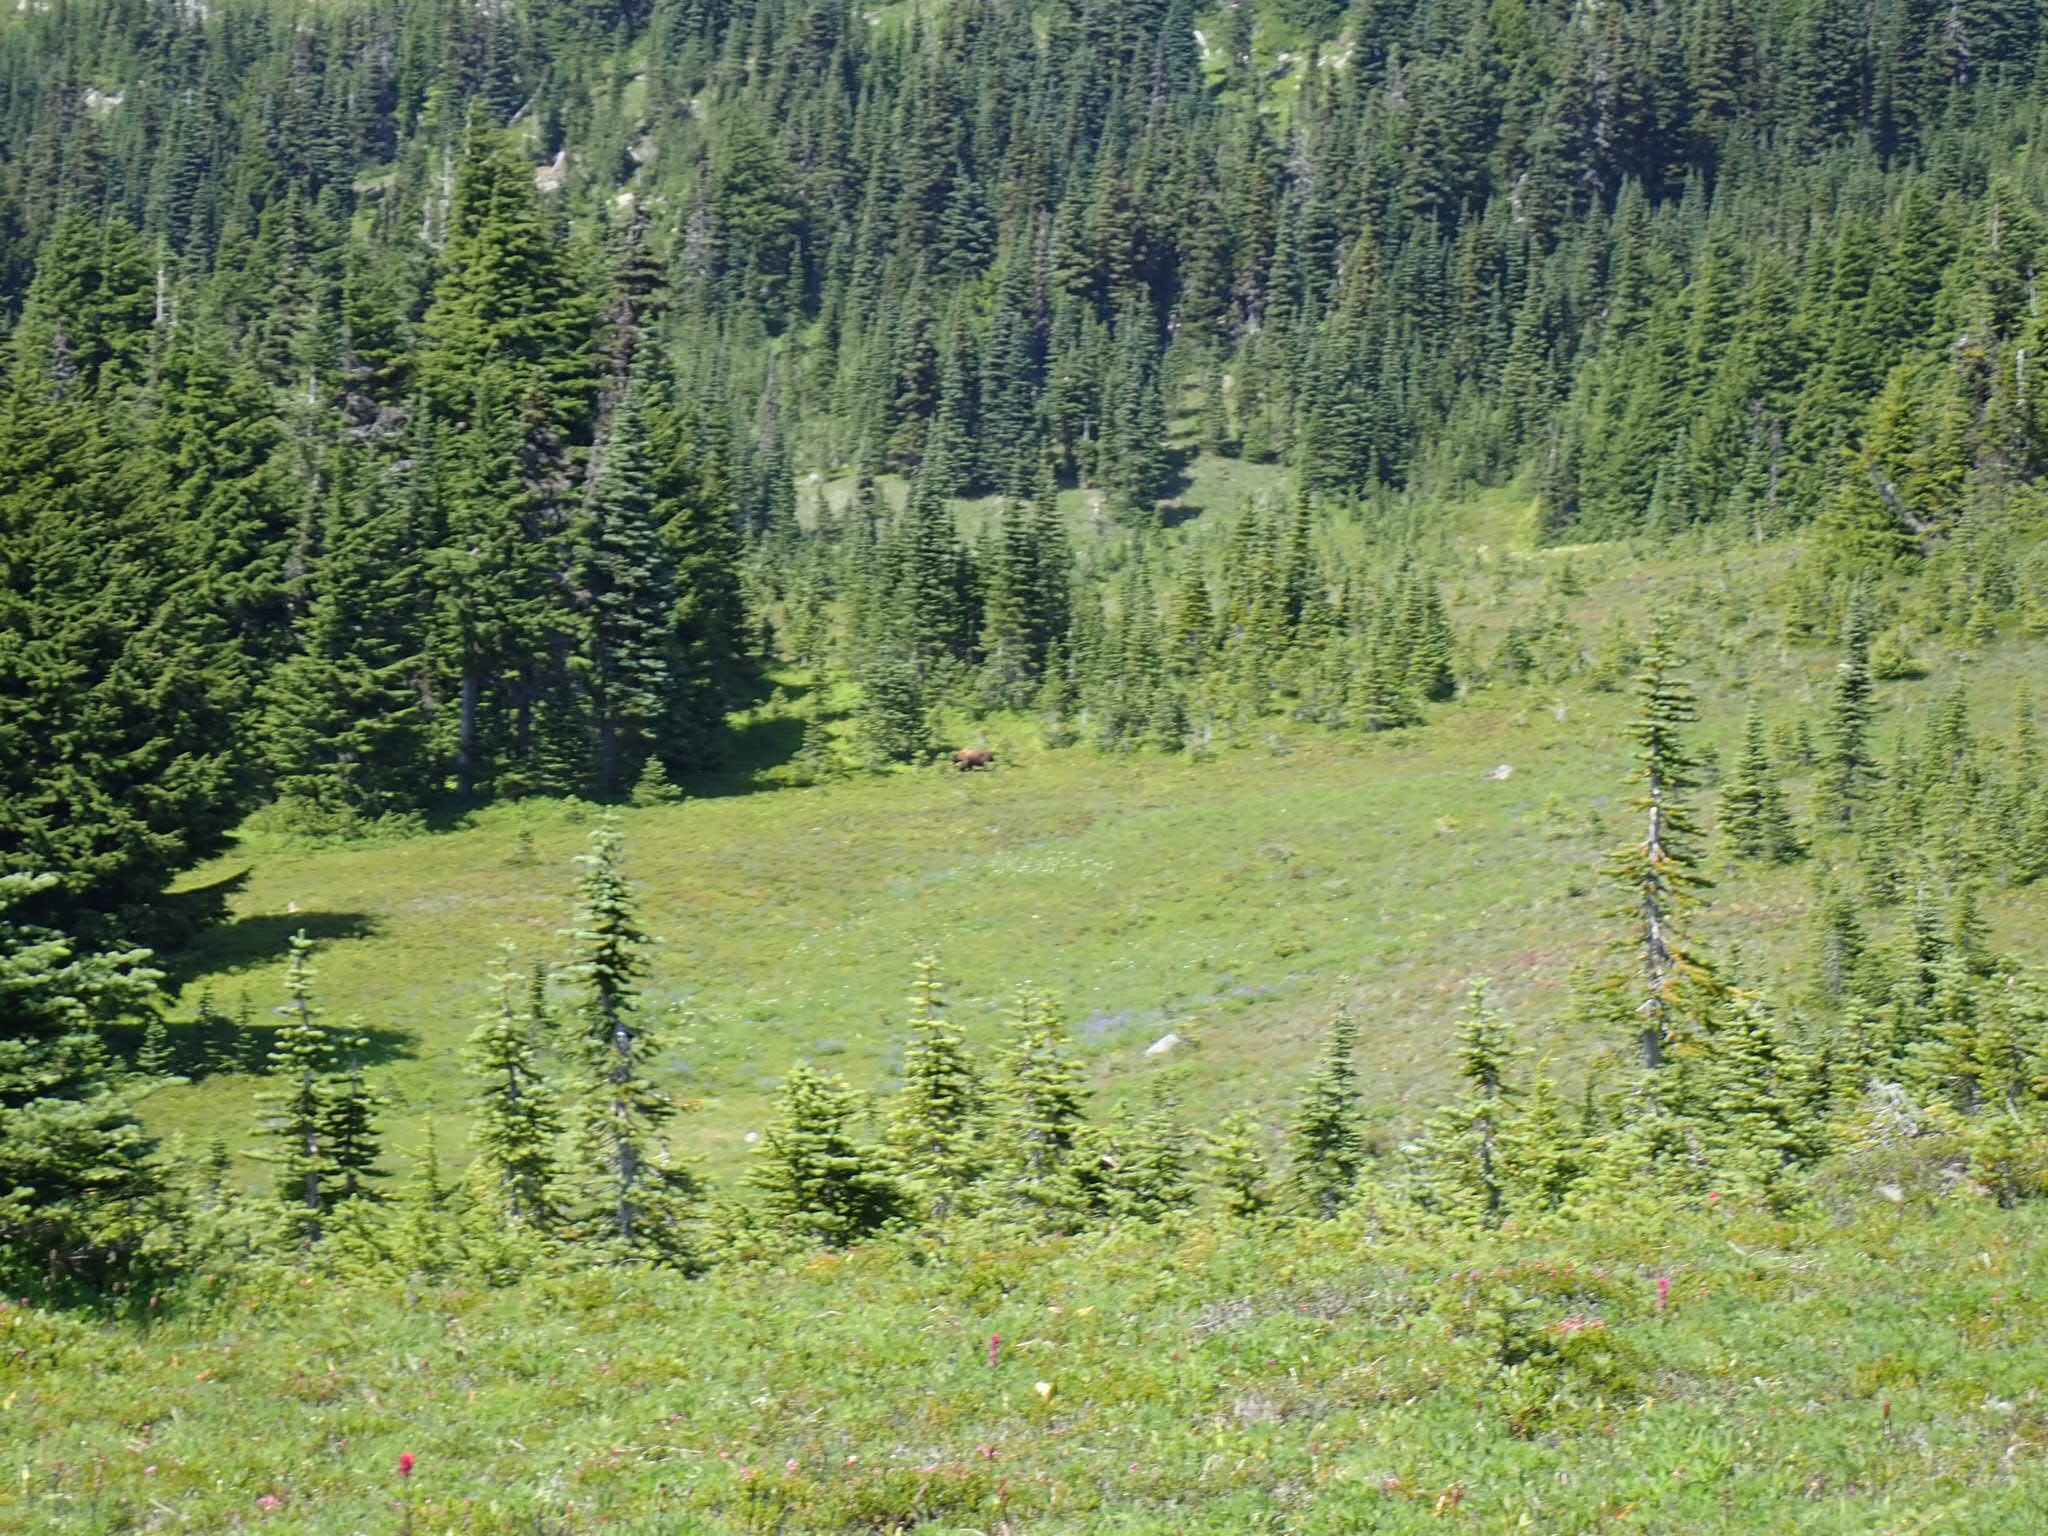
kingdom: Animalia
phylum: Chordata
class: Mammalia
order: Carnivora
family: Ursidae
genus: Ursus
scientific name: Ursus americanus
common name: American black bear
